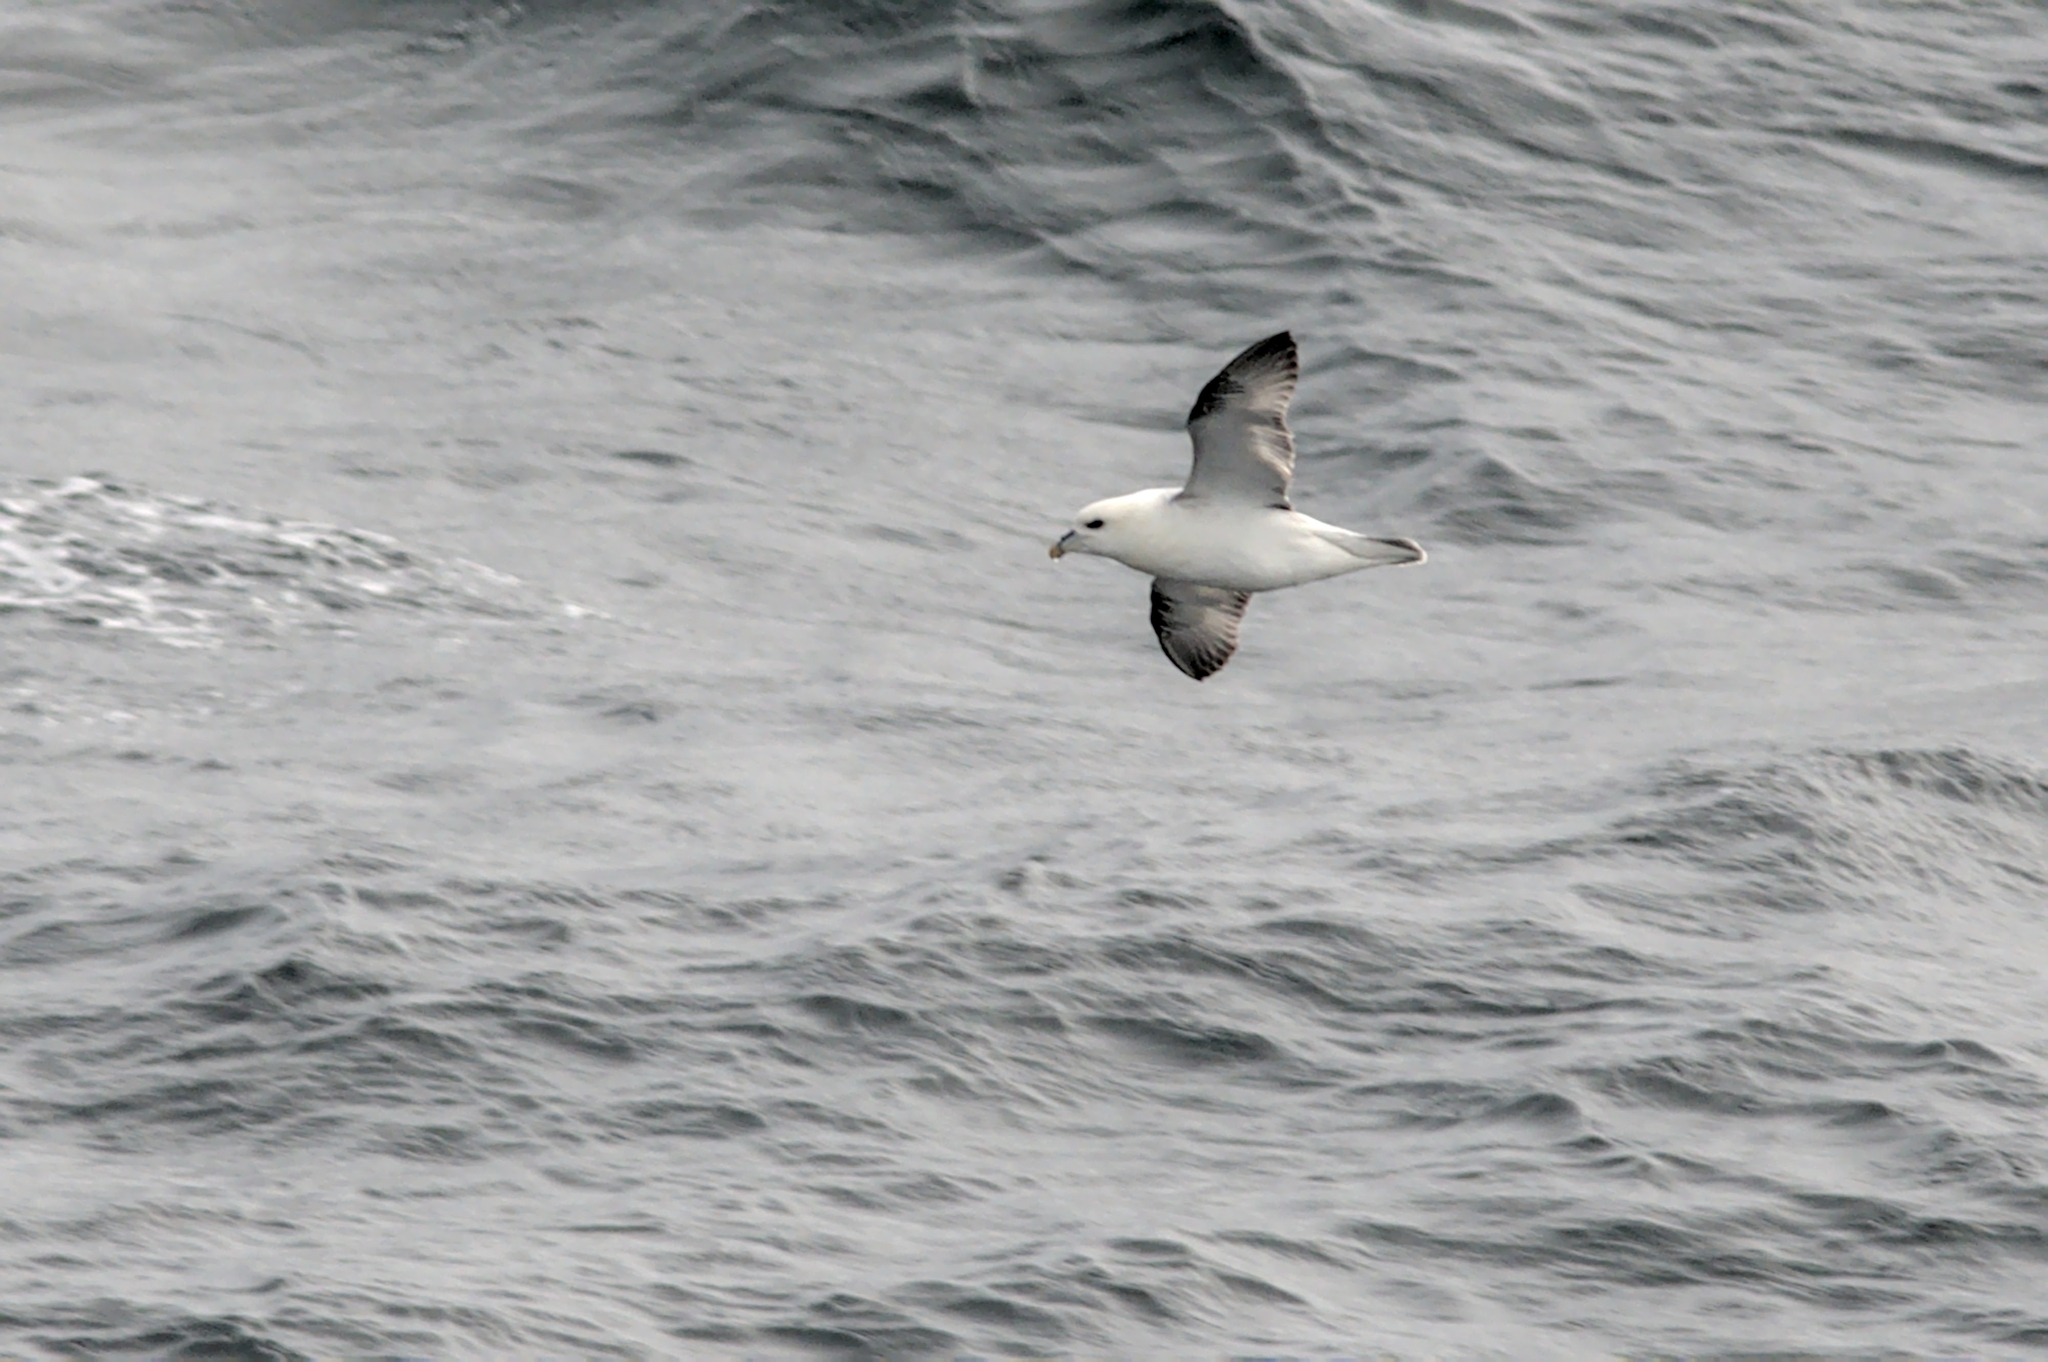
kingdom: Animalia
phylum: Chordata
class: Aves
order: Procellariiformes
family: Procellariidae
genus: Fulmarus
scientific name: Fulmarus glacialis
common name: Northern fulmar
